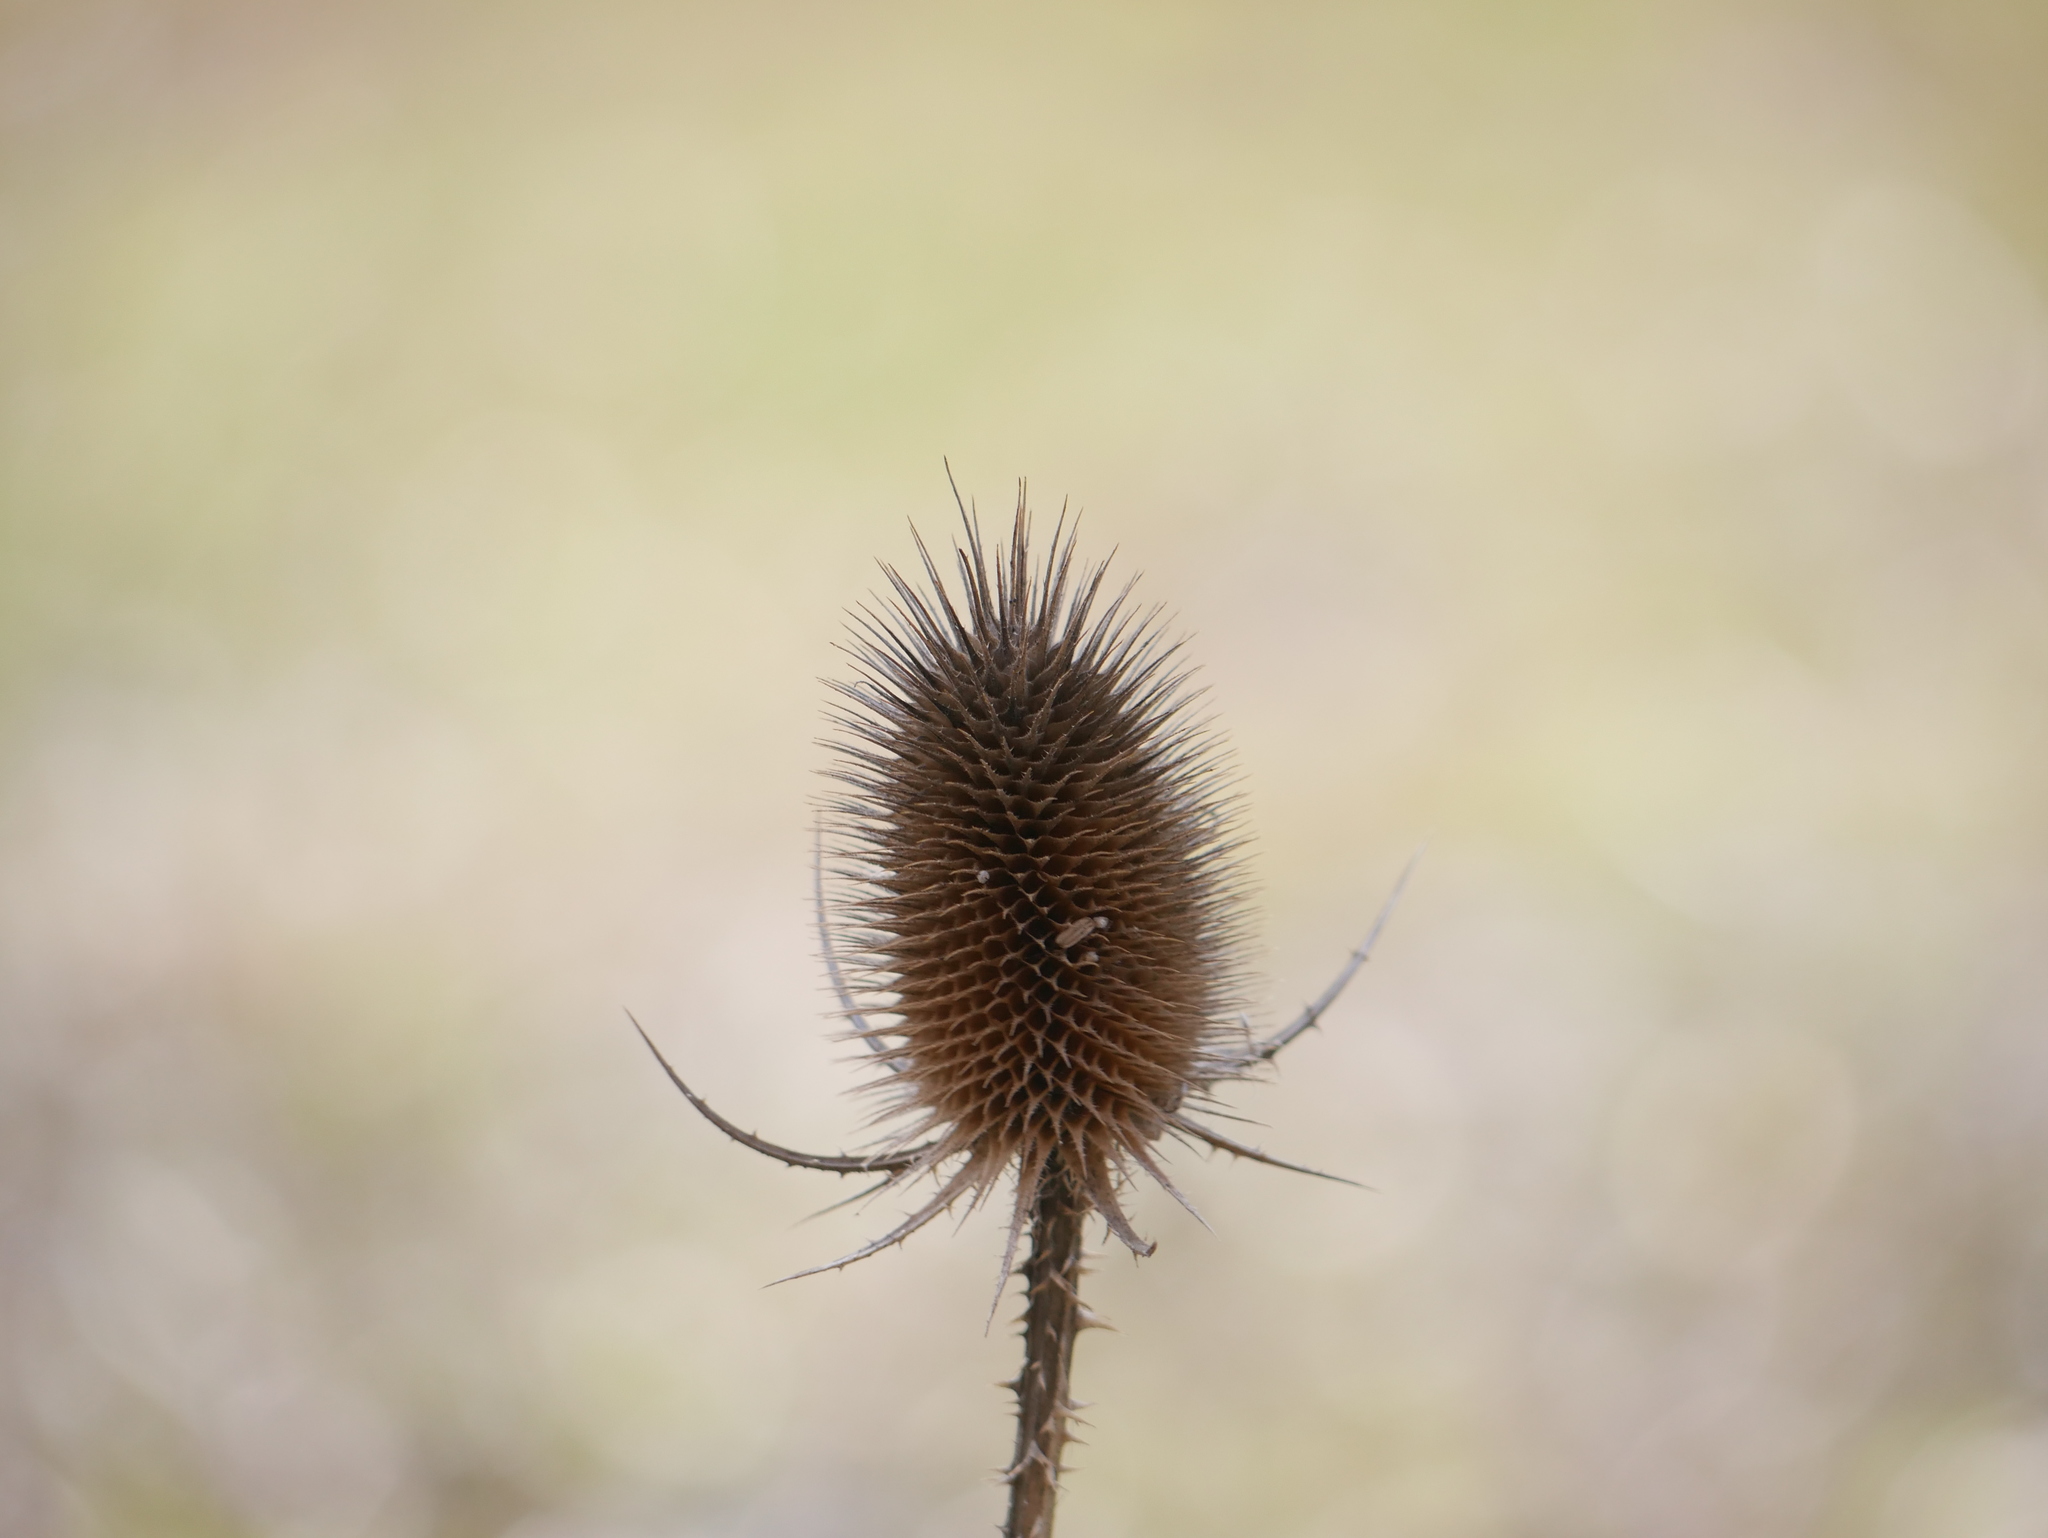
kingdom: Plantae
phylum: Tracheophyta
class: Magnoliopsida
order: Dipsacales
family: Caprifoliaceae
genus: Dipsacus
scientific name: Dipsacus fullonum
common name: Teasel
